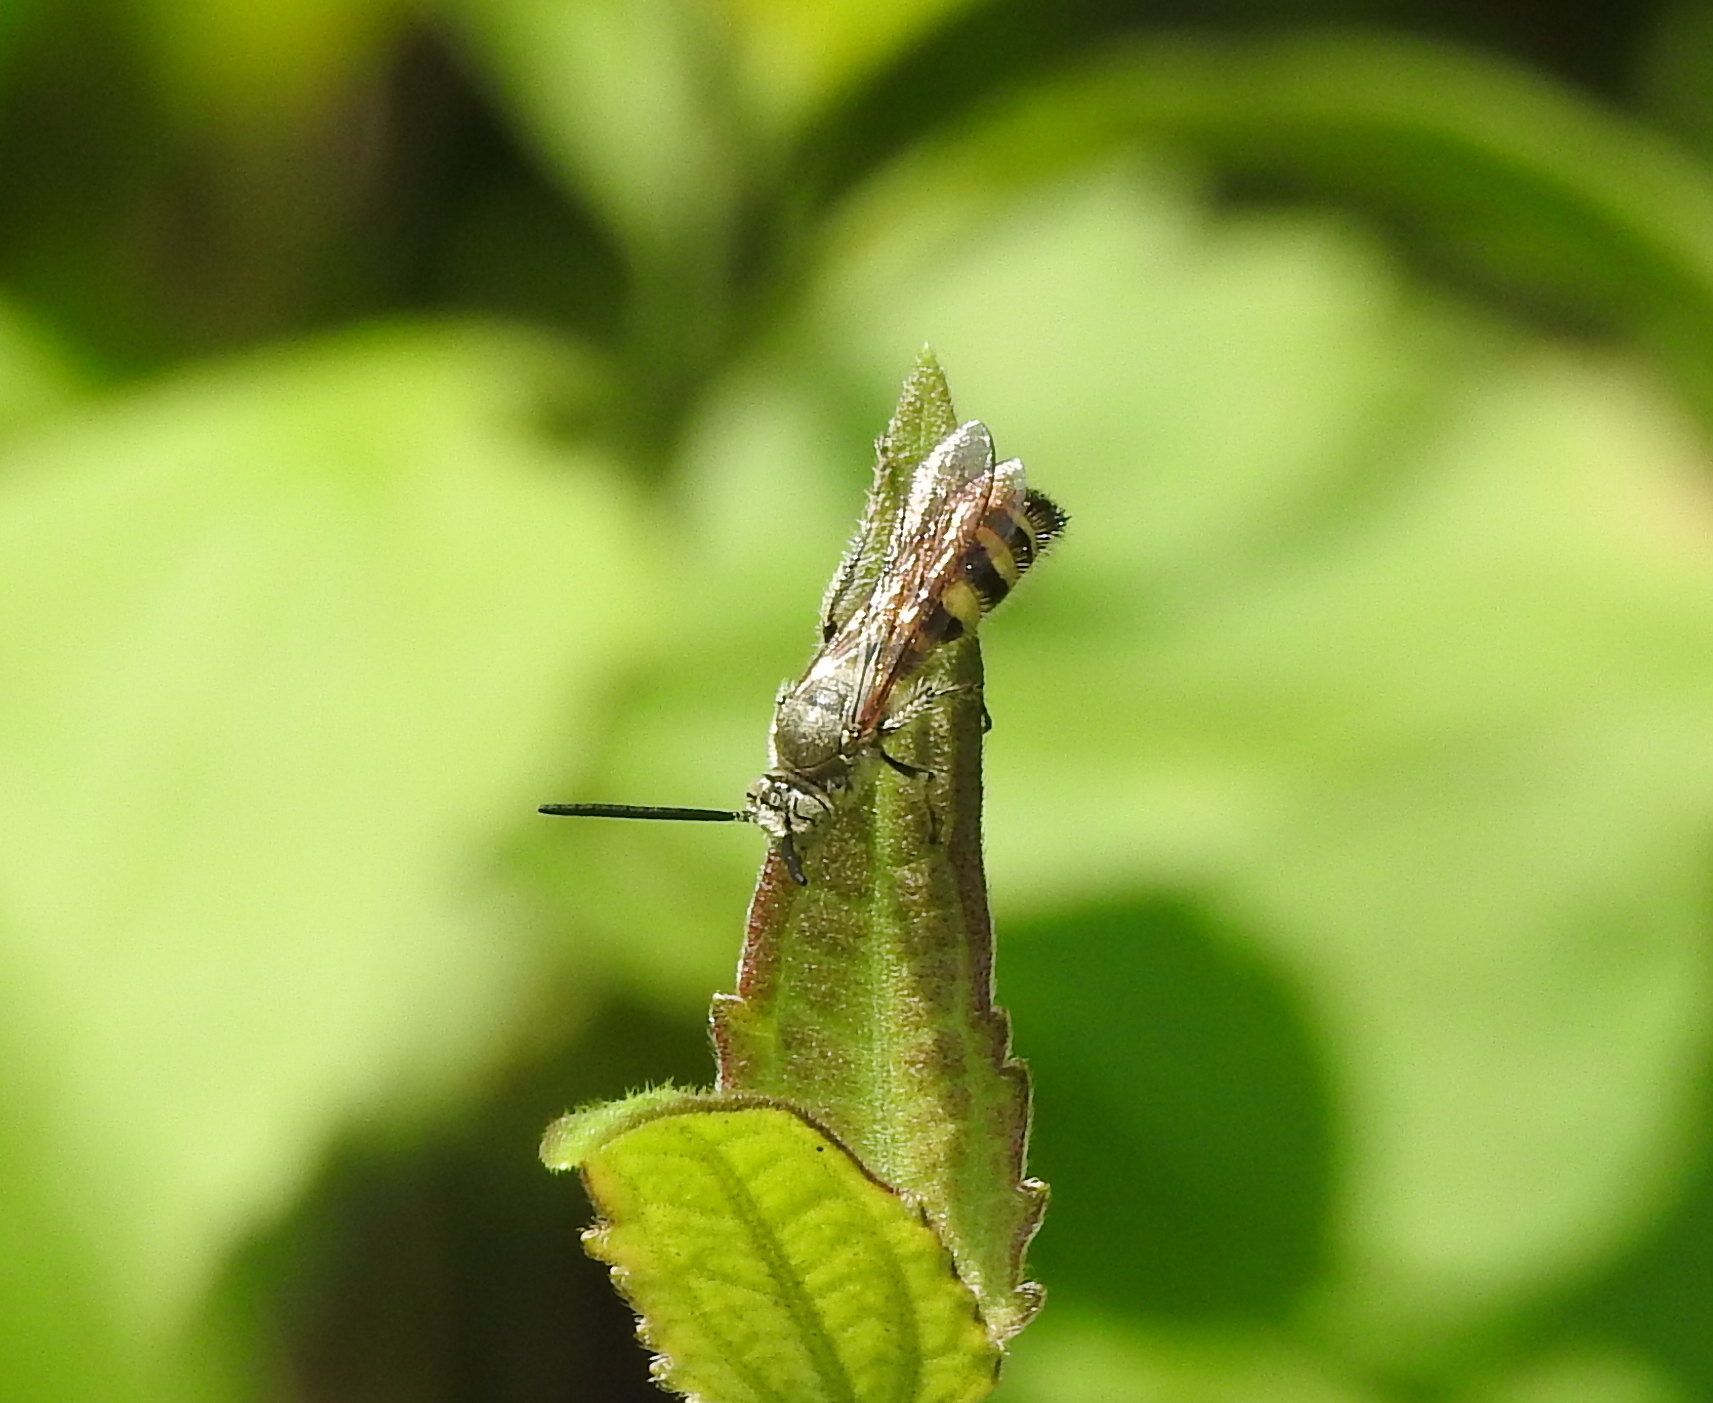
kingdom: Animalia
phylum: Arthropoda
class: Insecta
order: Hymenoptera
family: Scoliidae
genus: Campsomeriella
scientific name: Campsomeriella collaris
